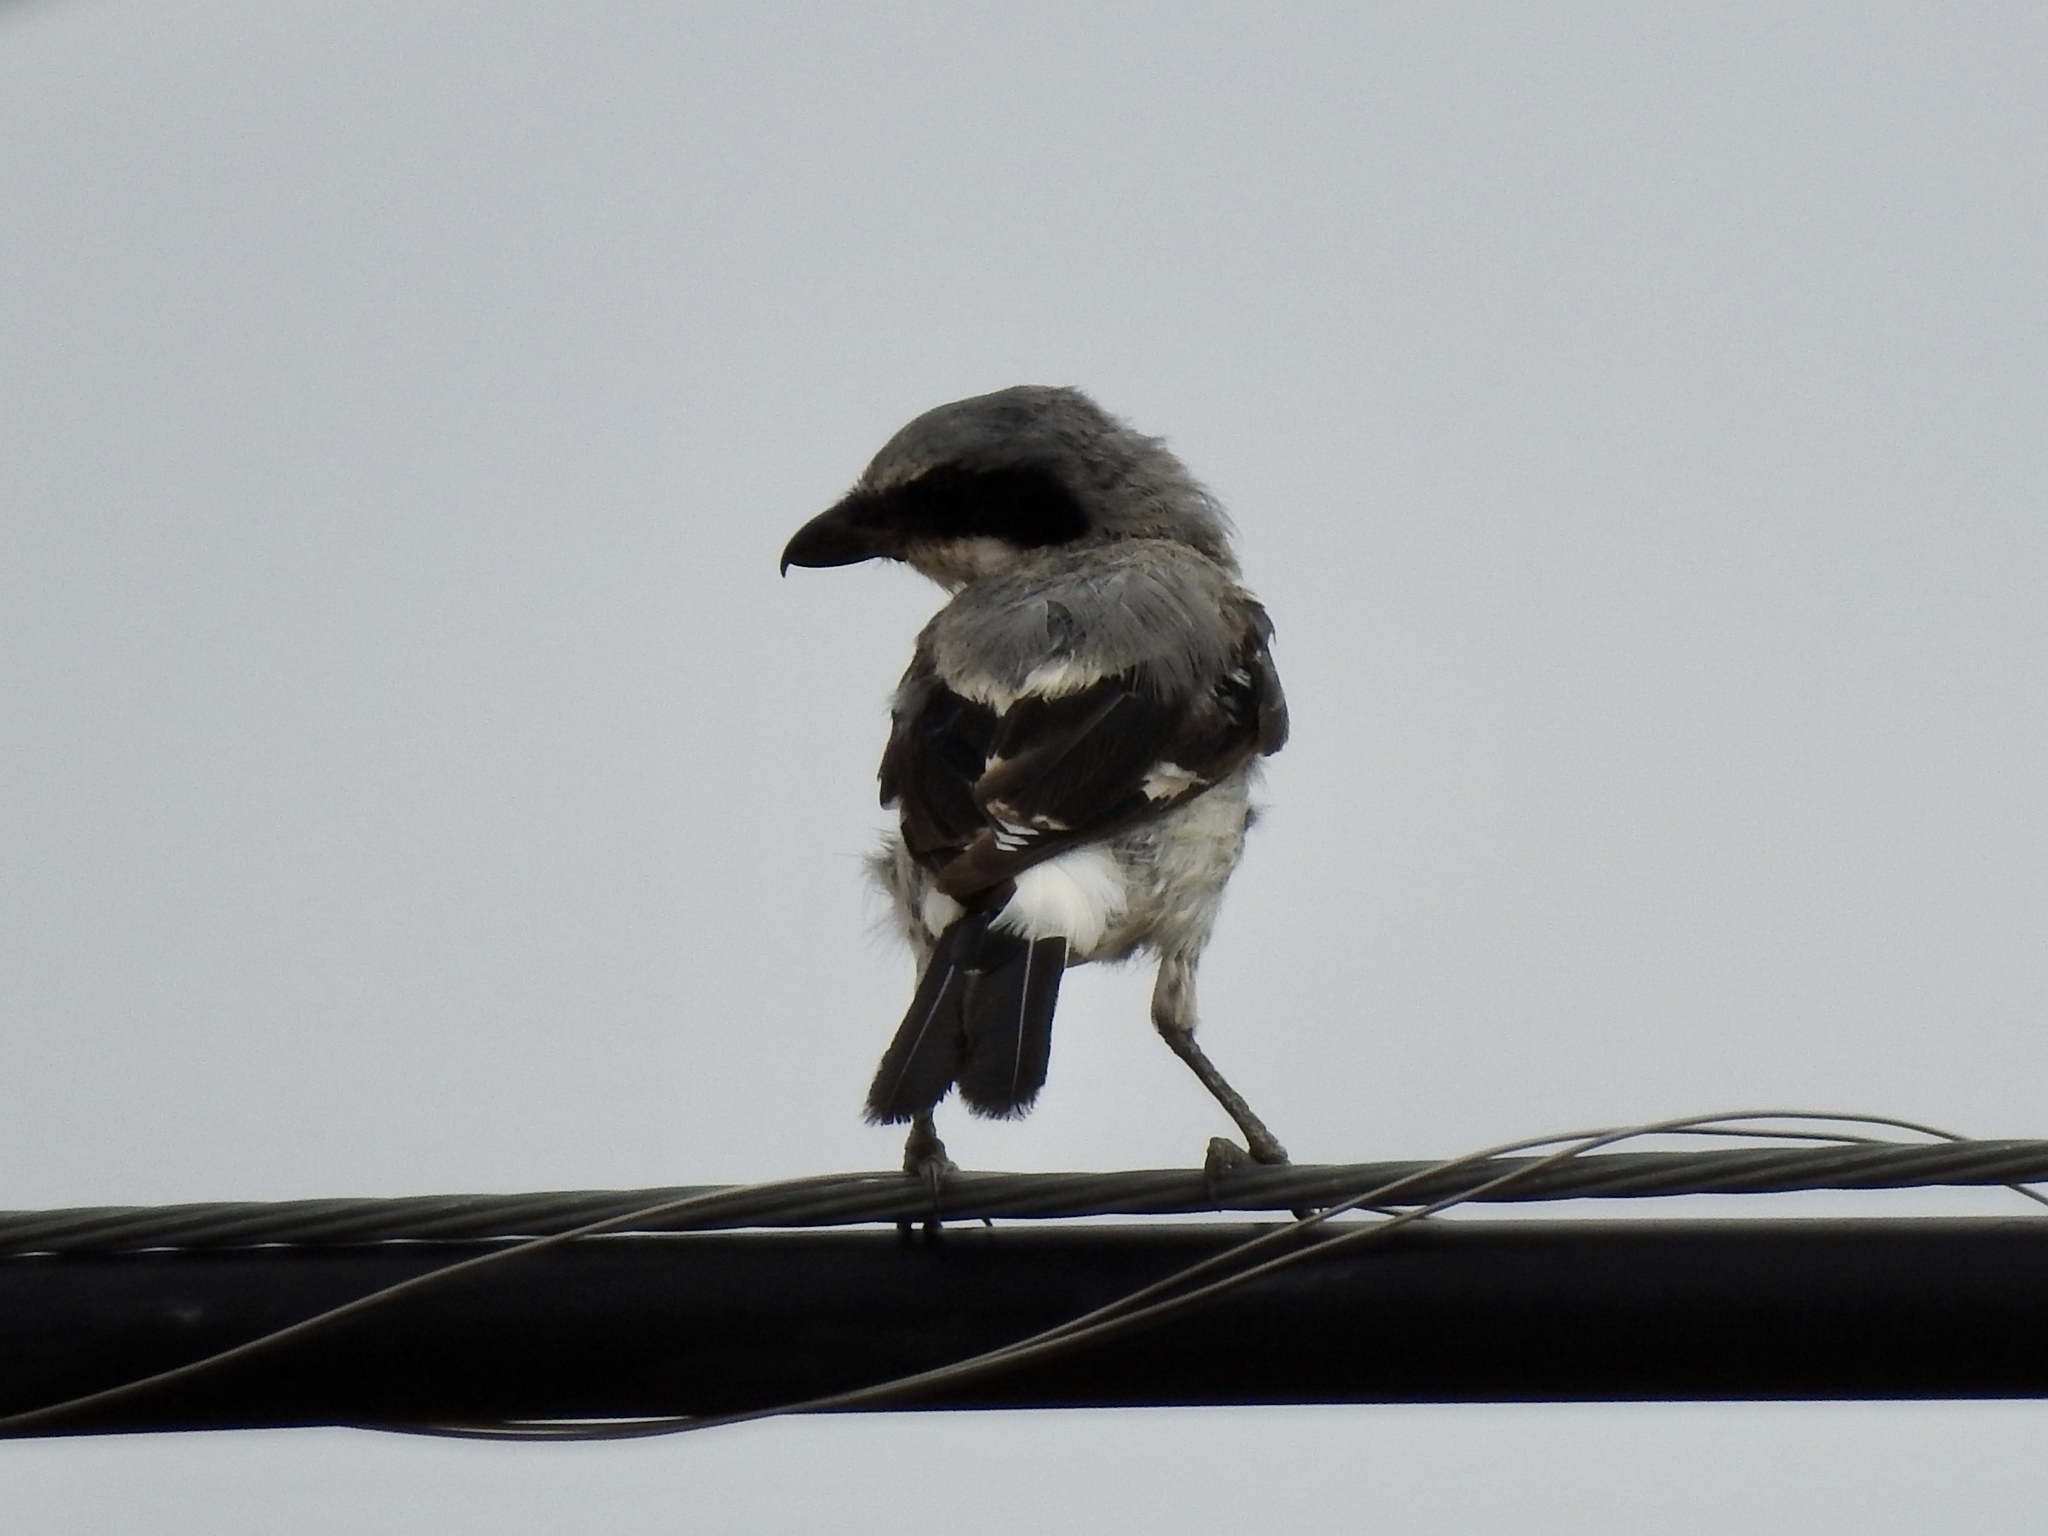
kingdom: Animalia
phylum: Chordata
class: Aves
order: Passeriformes
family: Laniidae
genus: Lanius
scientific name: Lanius ludovicianus
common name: Loggerhead shrike
